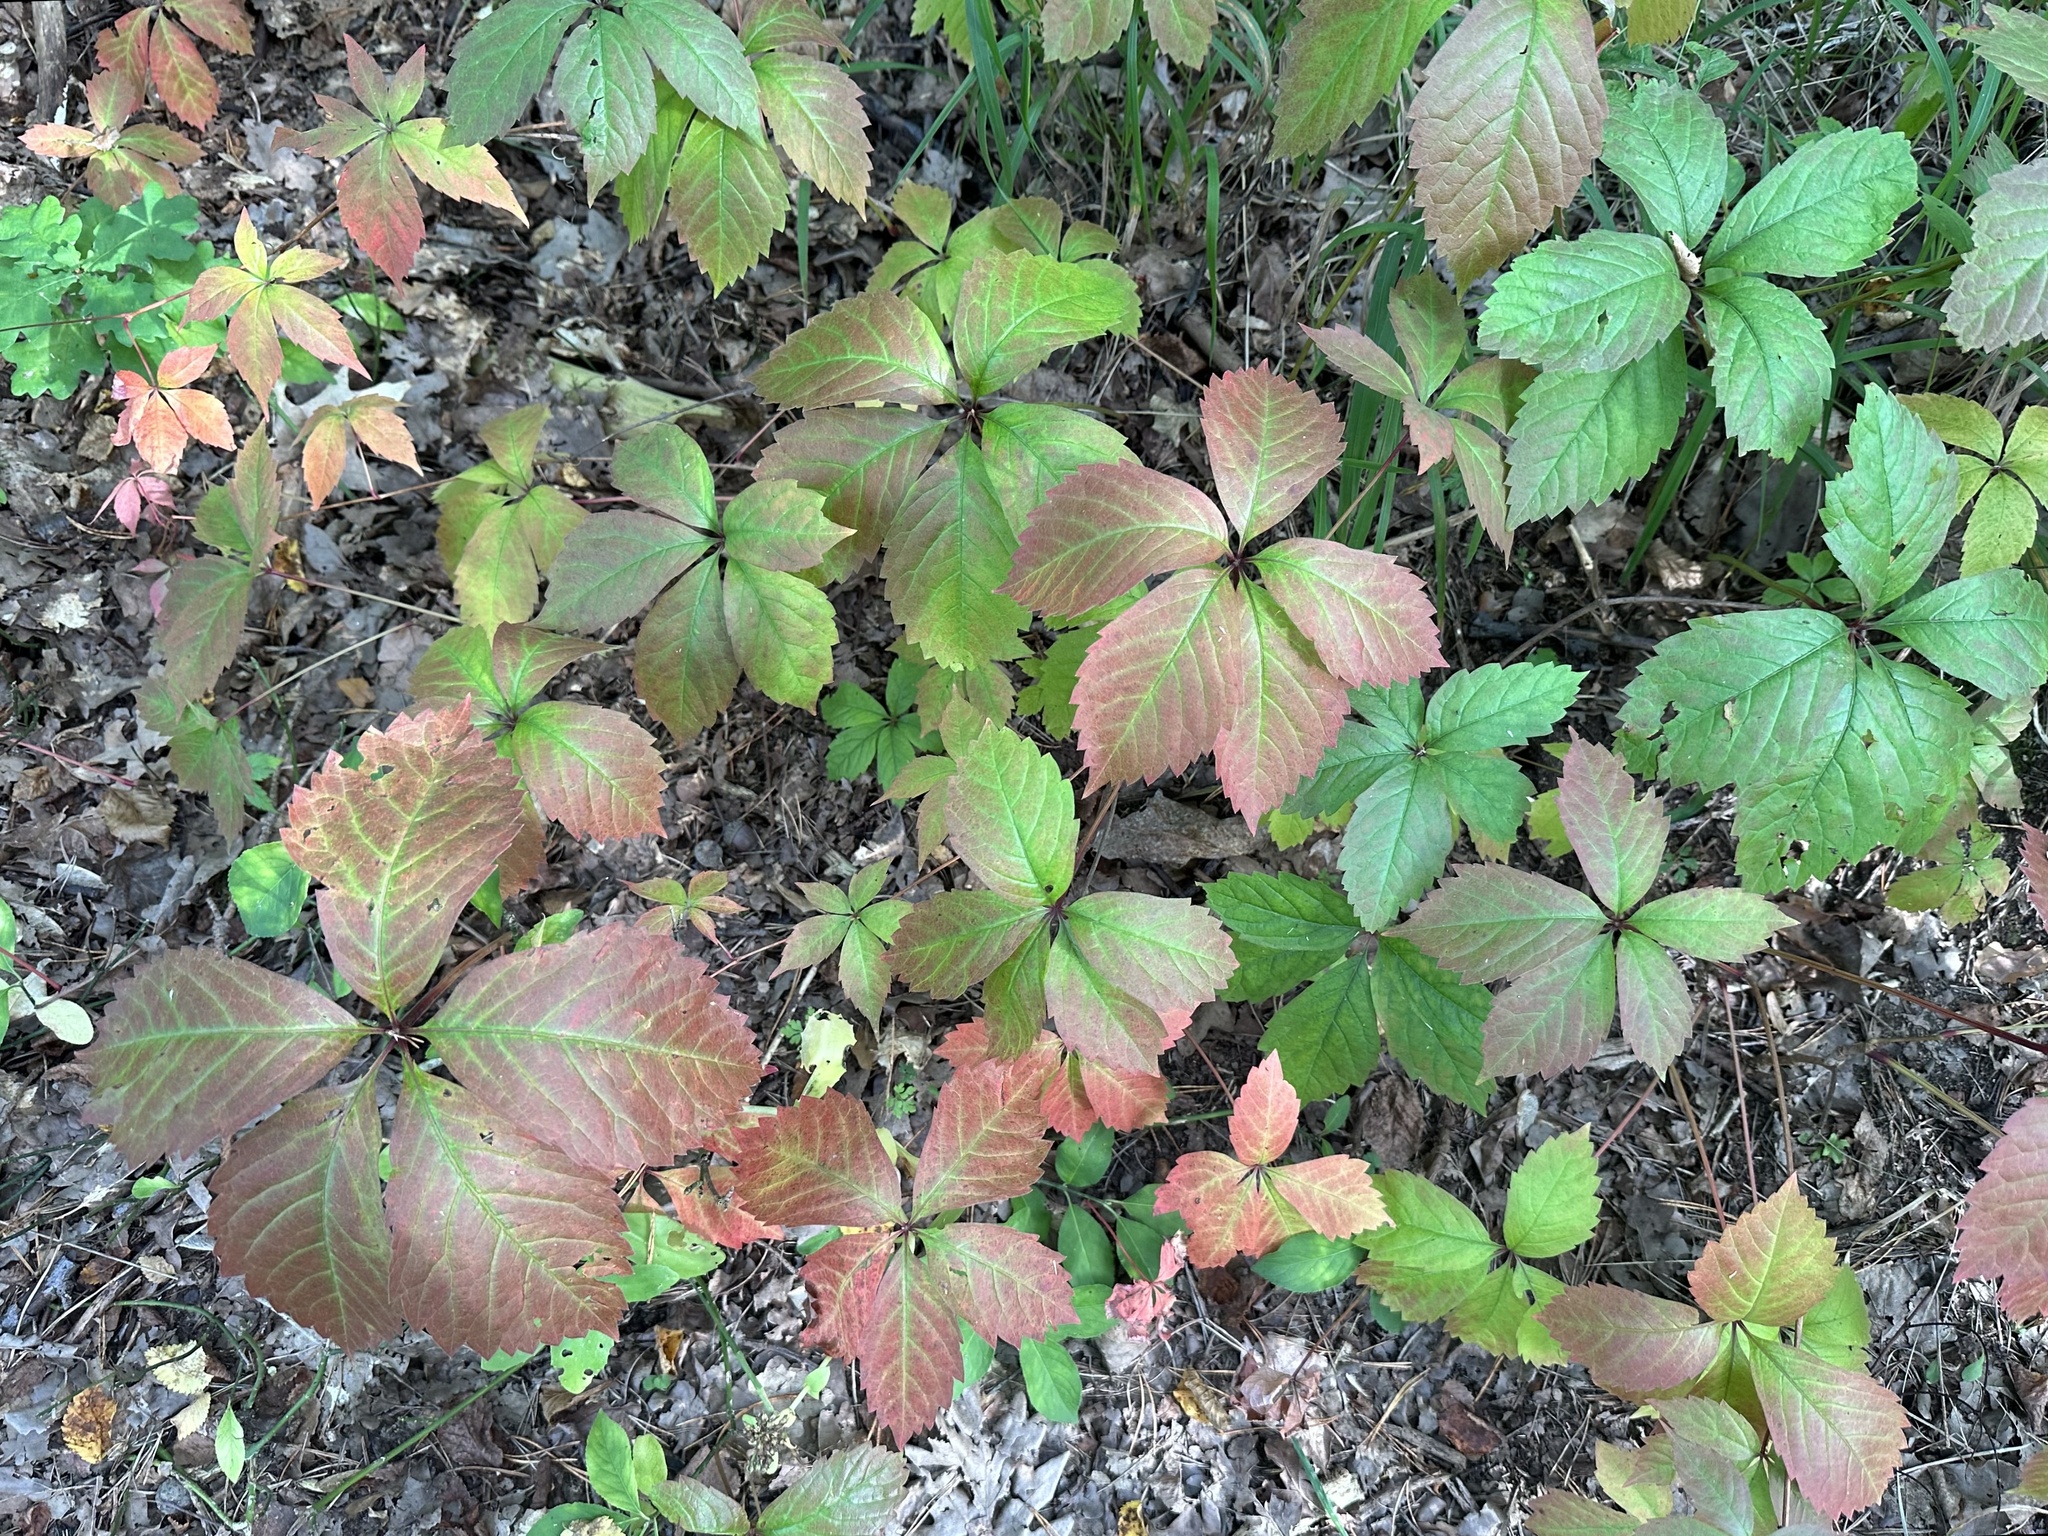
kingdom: Plantae
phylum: Tracheophyta
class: Magnoliopsida
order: Vitales
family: Vitaceae
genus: Parthenocissus
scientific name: Parthenocissus inserta
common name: False virginia-creeper
